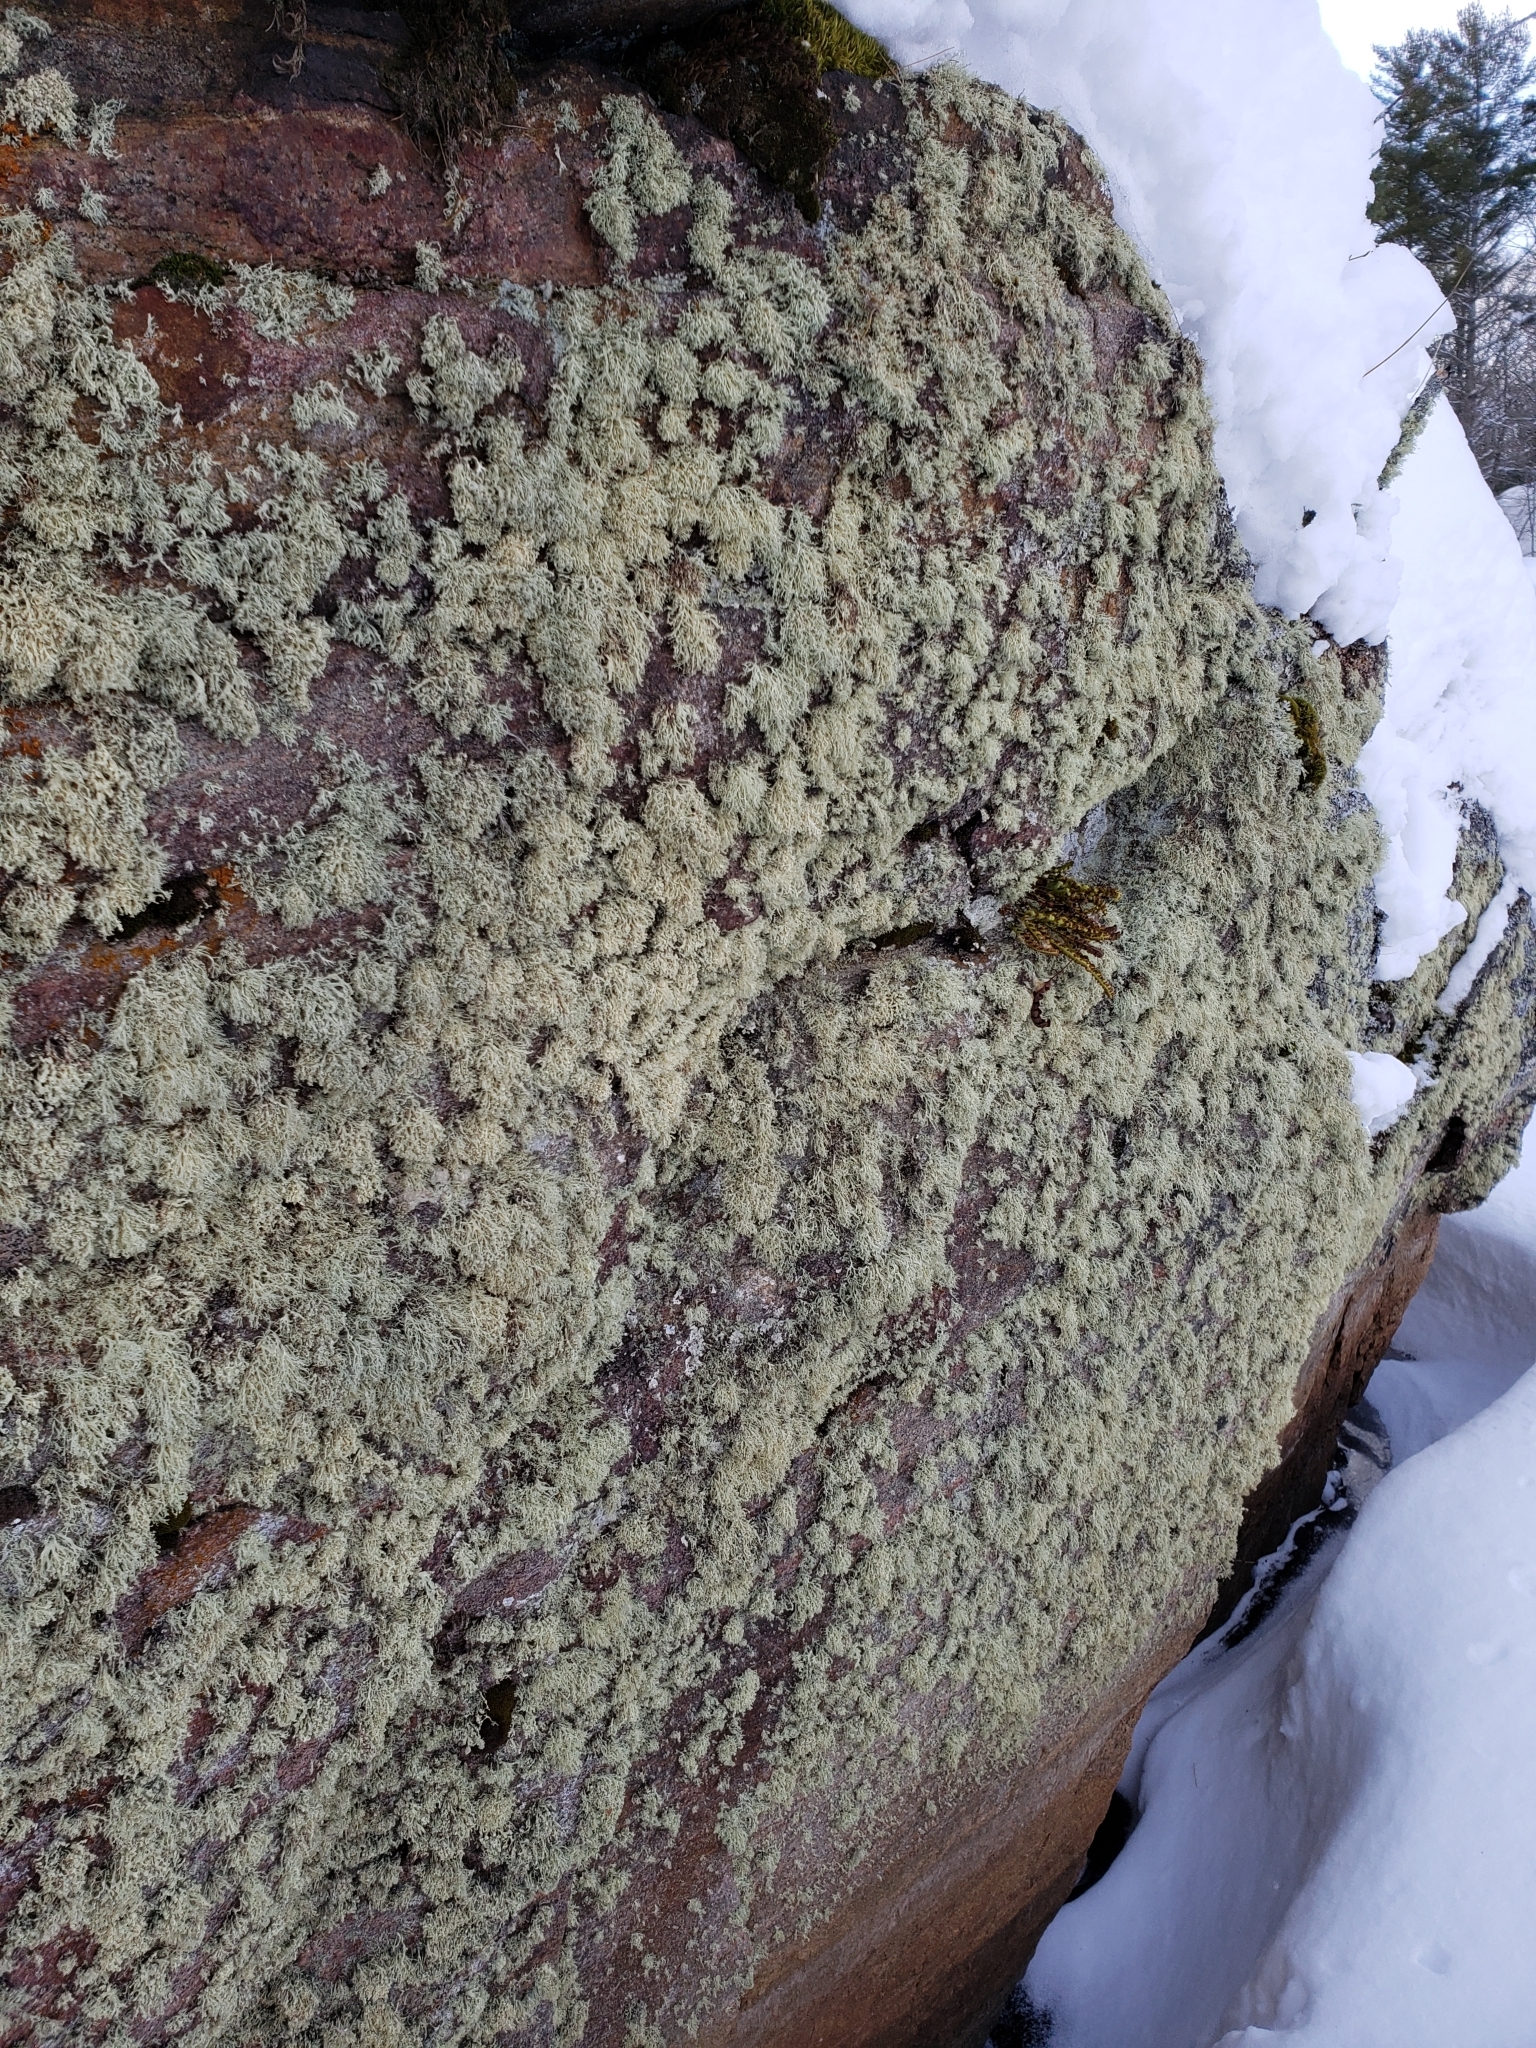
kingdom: Fungi
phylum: Ascomycota
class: Lecanoromycetes
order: Lecanorales
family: Ramalinaceae
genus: Ramalina
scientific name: Ramalina intermedia
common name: Rock bushy lichen
